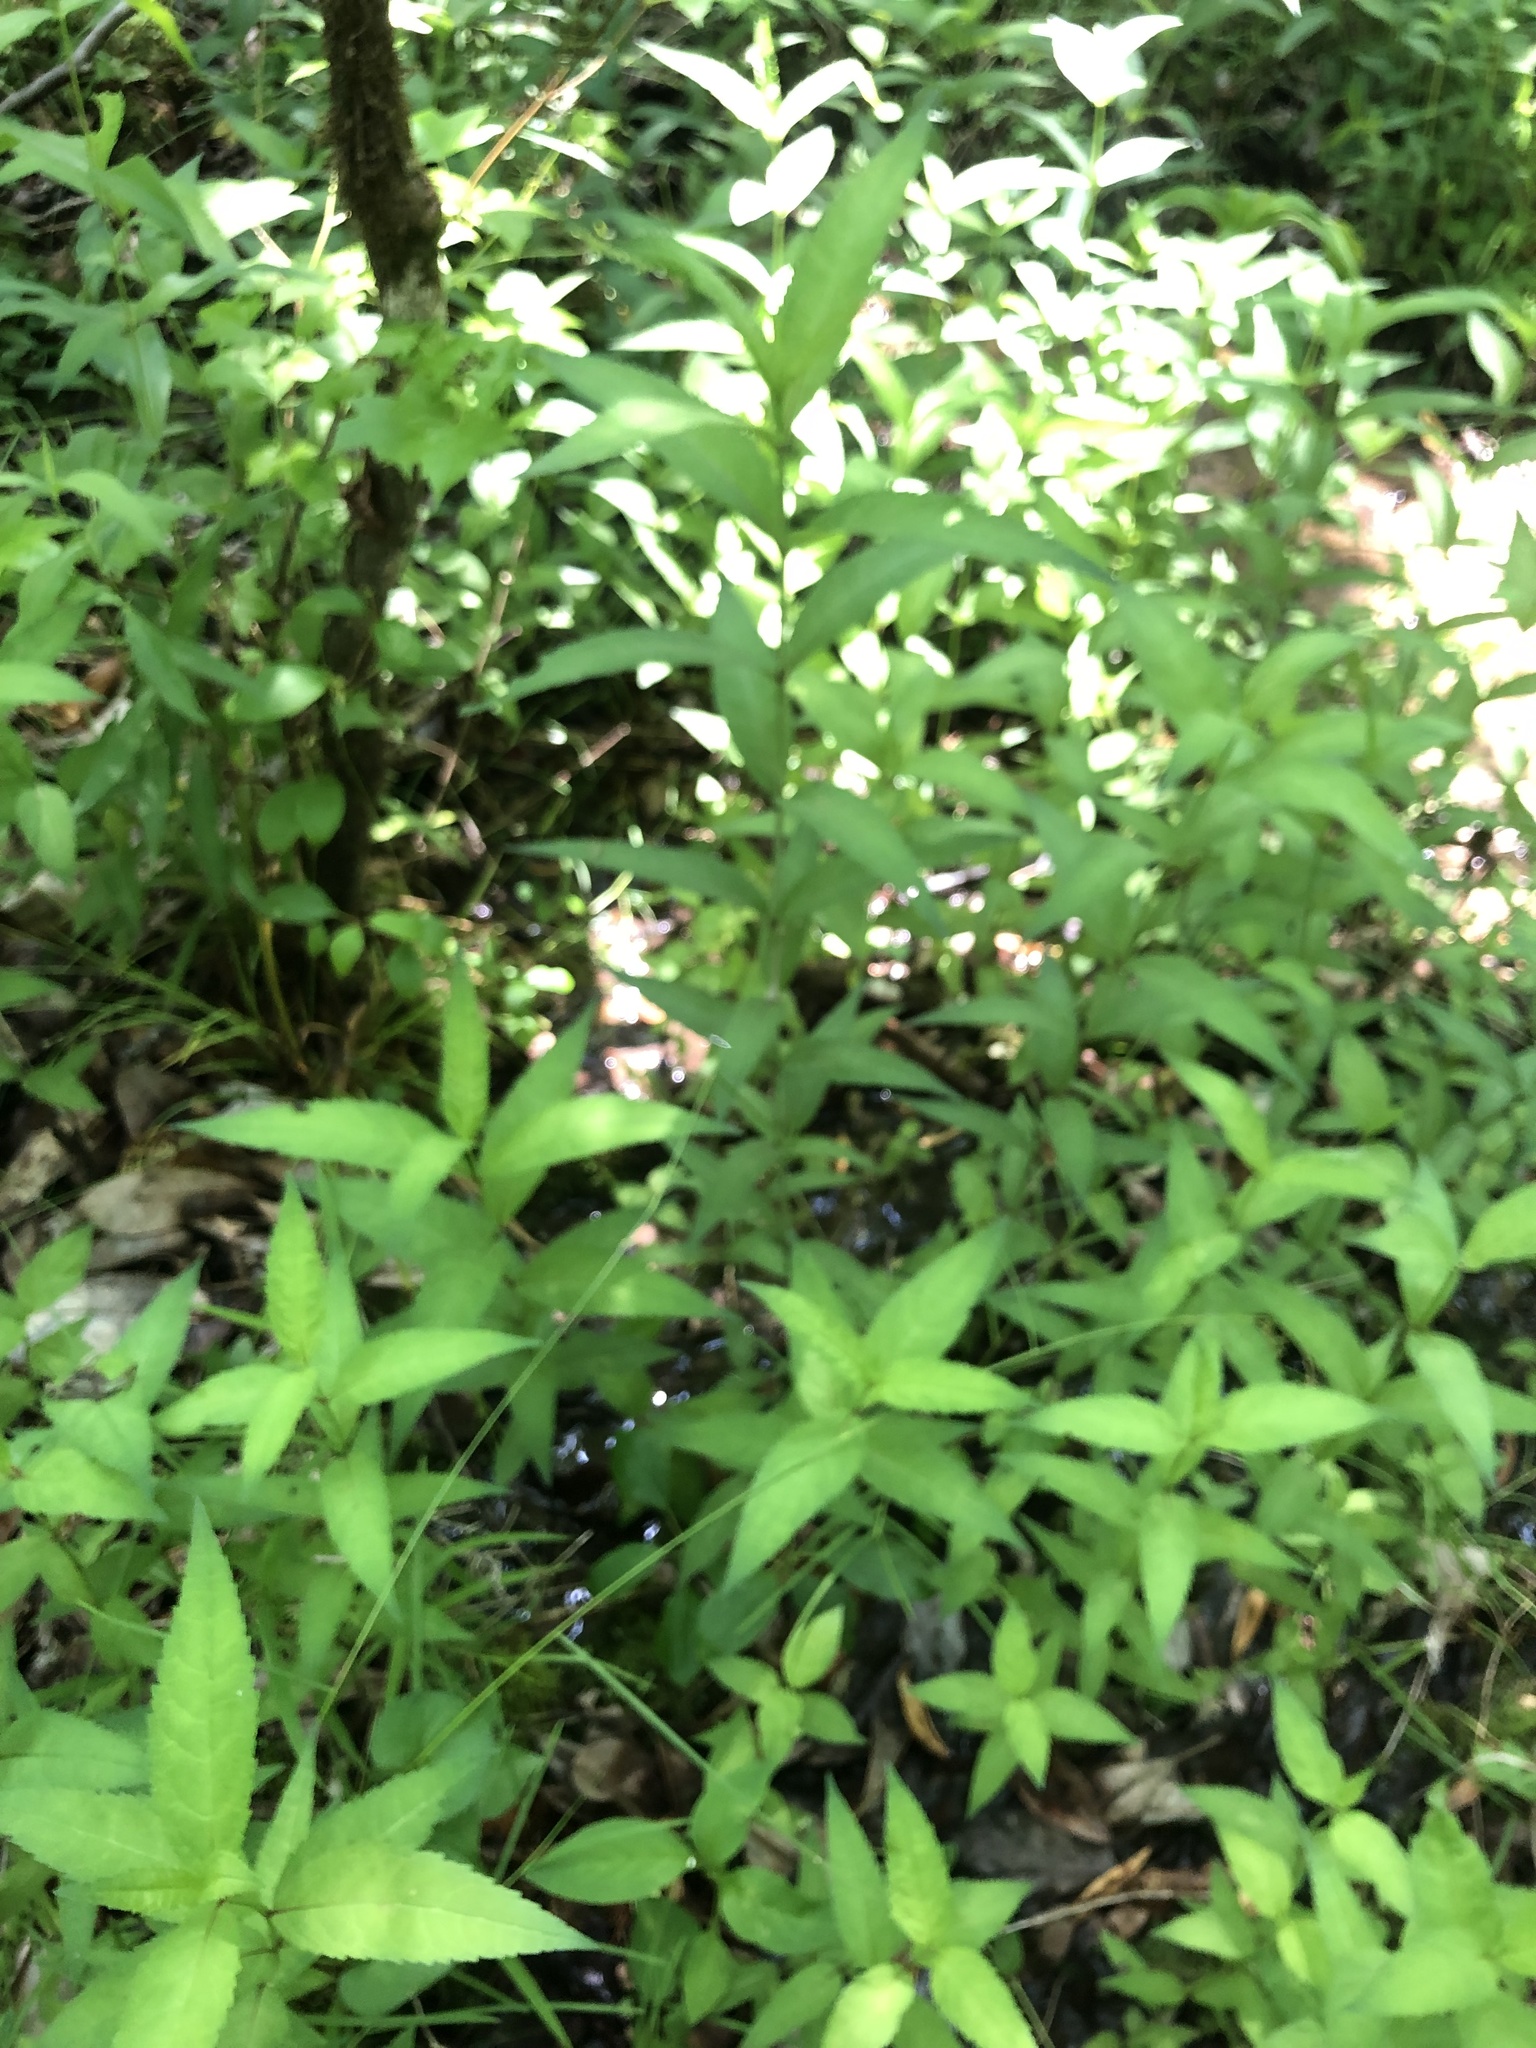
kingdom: Plantae
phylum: Tracheophyta
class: Magnoliopsida
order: Lamiales
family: Plantaginaceae
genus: Chelone
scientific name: Chelone glabra
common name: Snakehead
